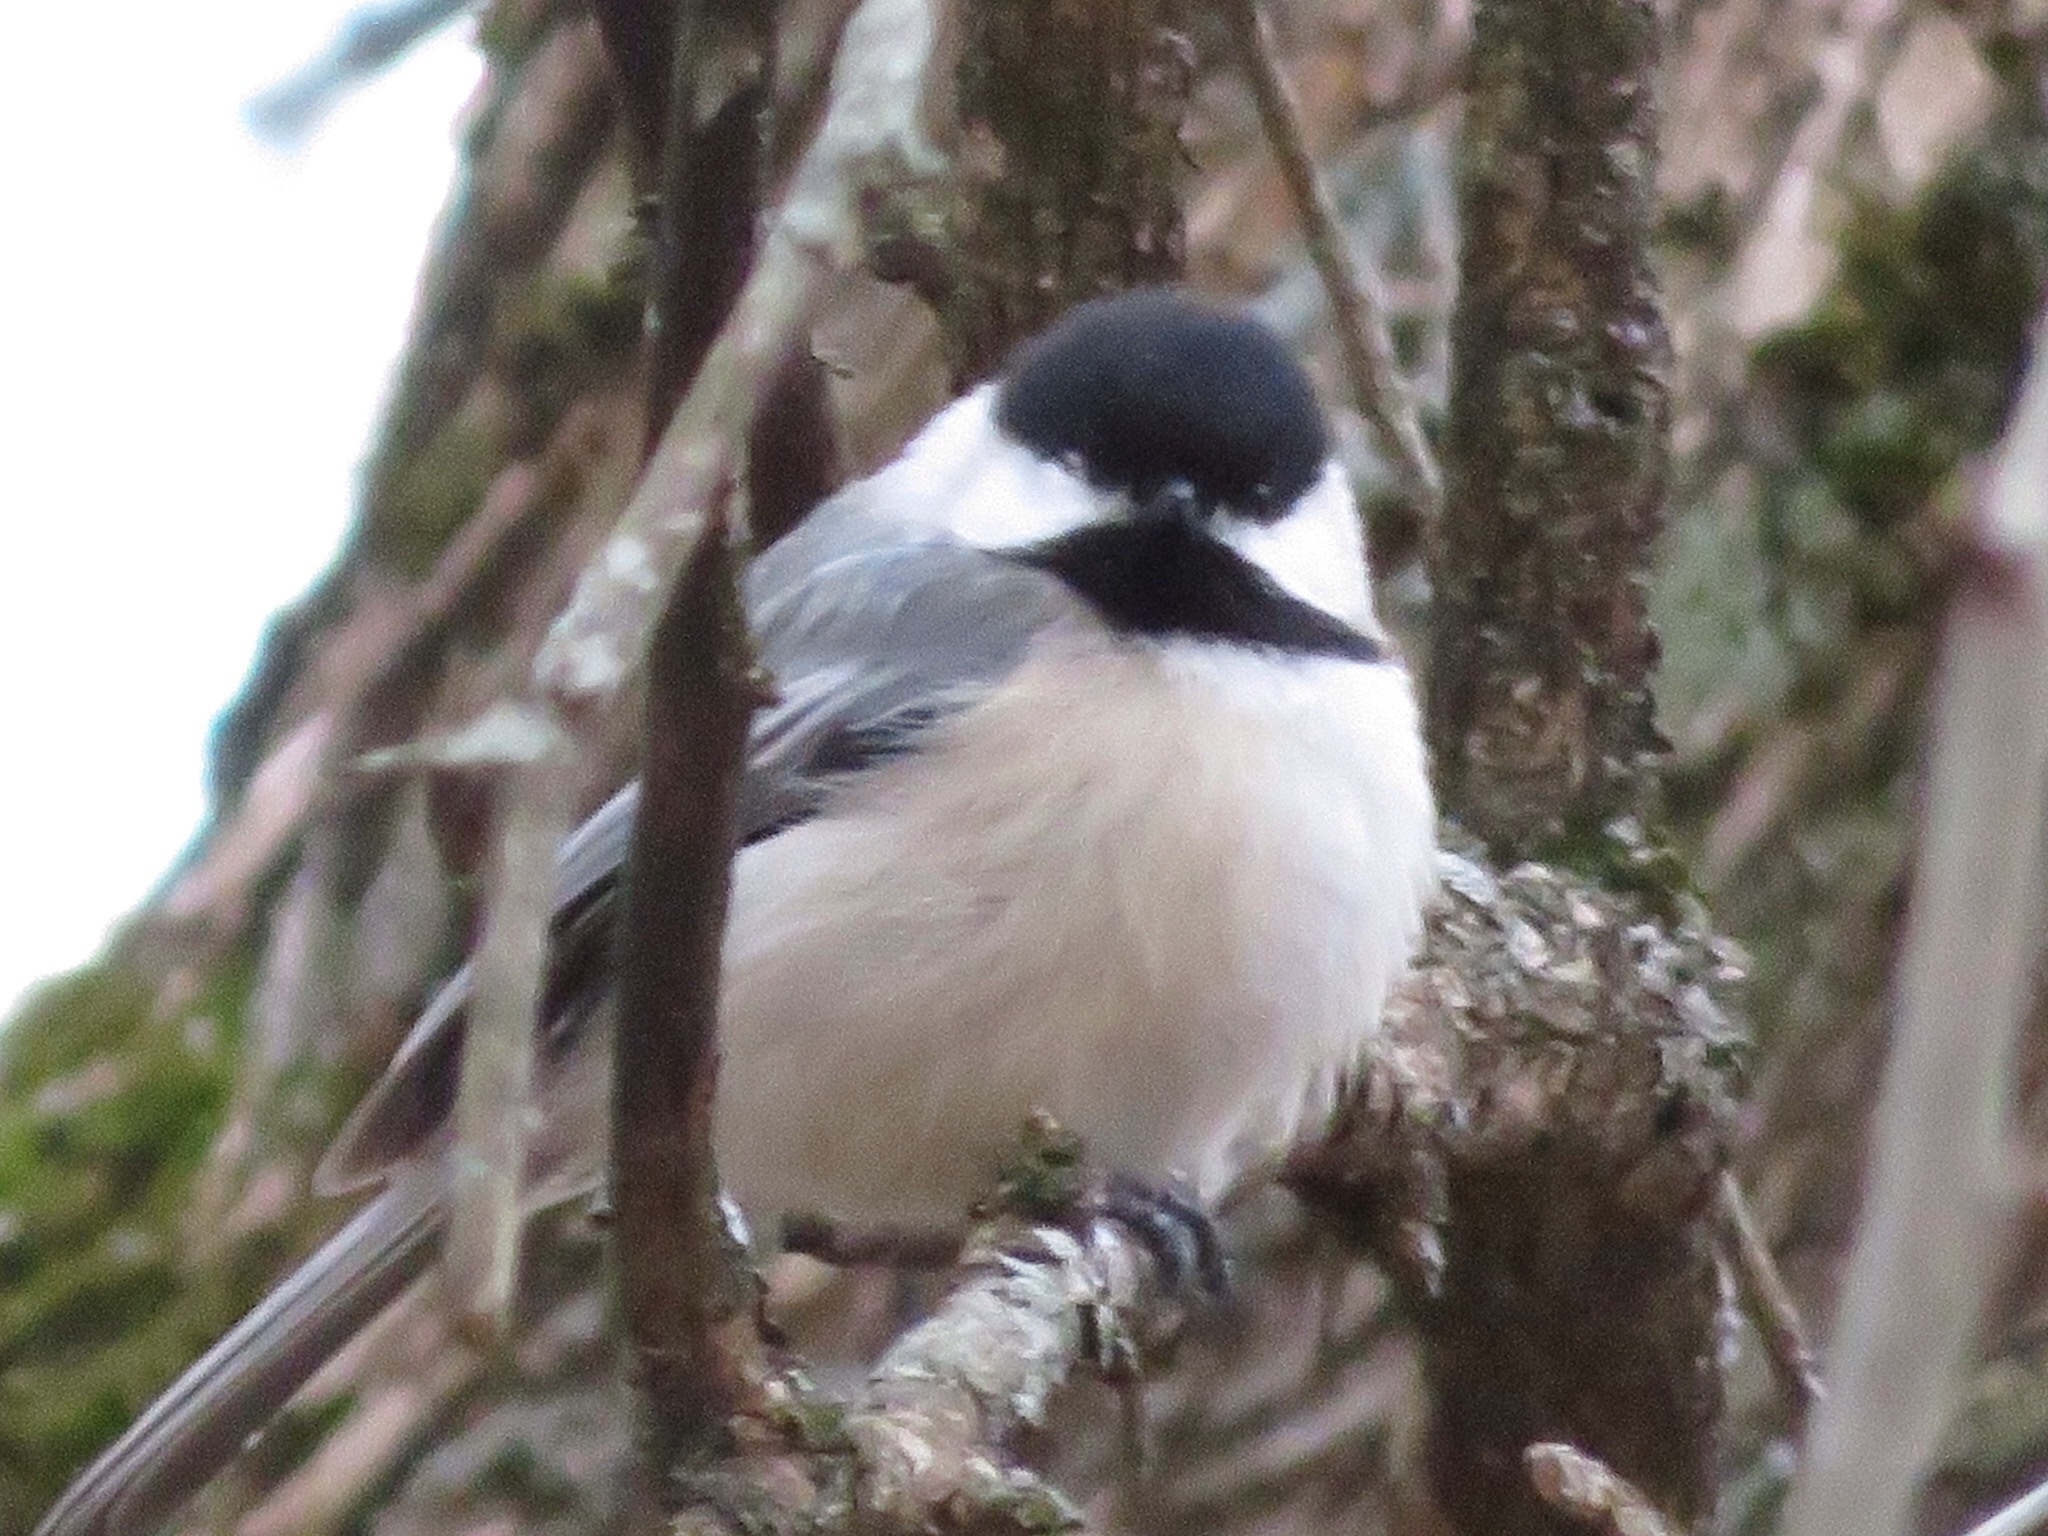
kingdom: Animalia
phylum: Chordata
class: Aves
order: Passeriformes
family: Paridae
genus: Poecile
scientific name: Poecile atricapillus
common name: Black-capped chickadee
